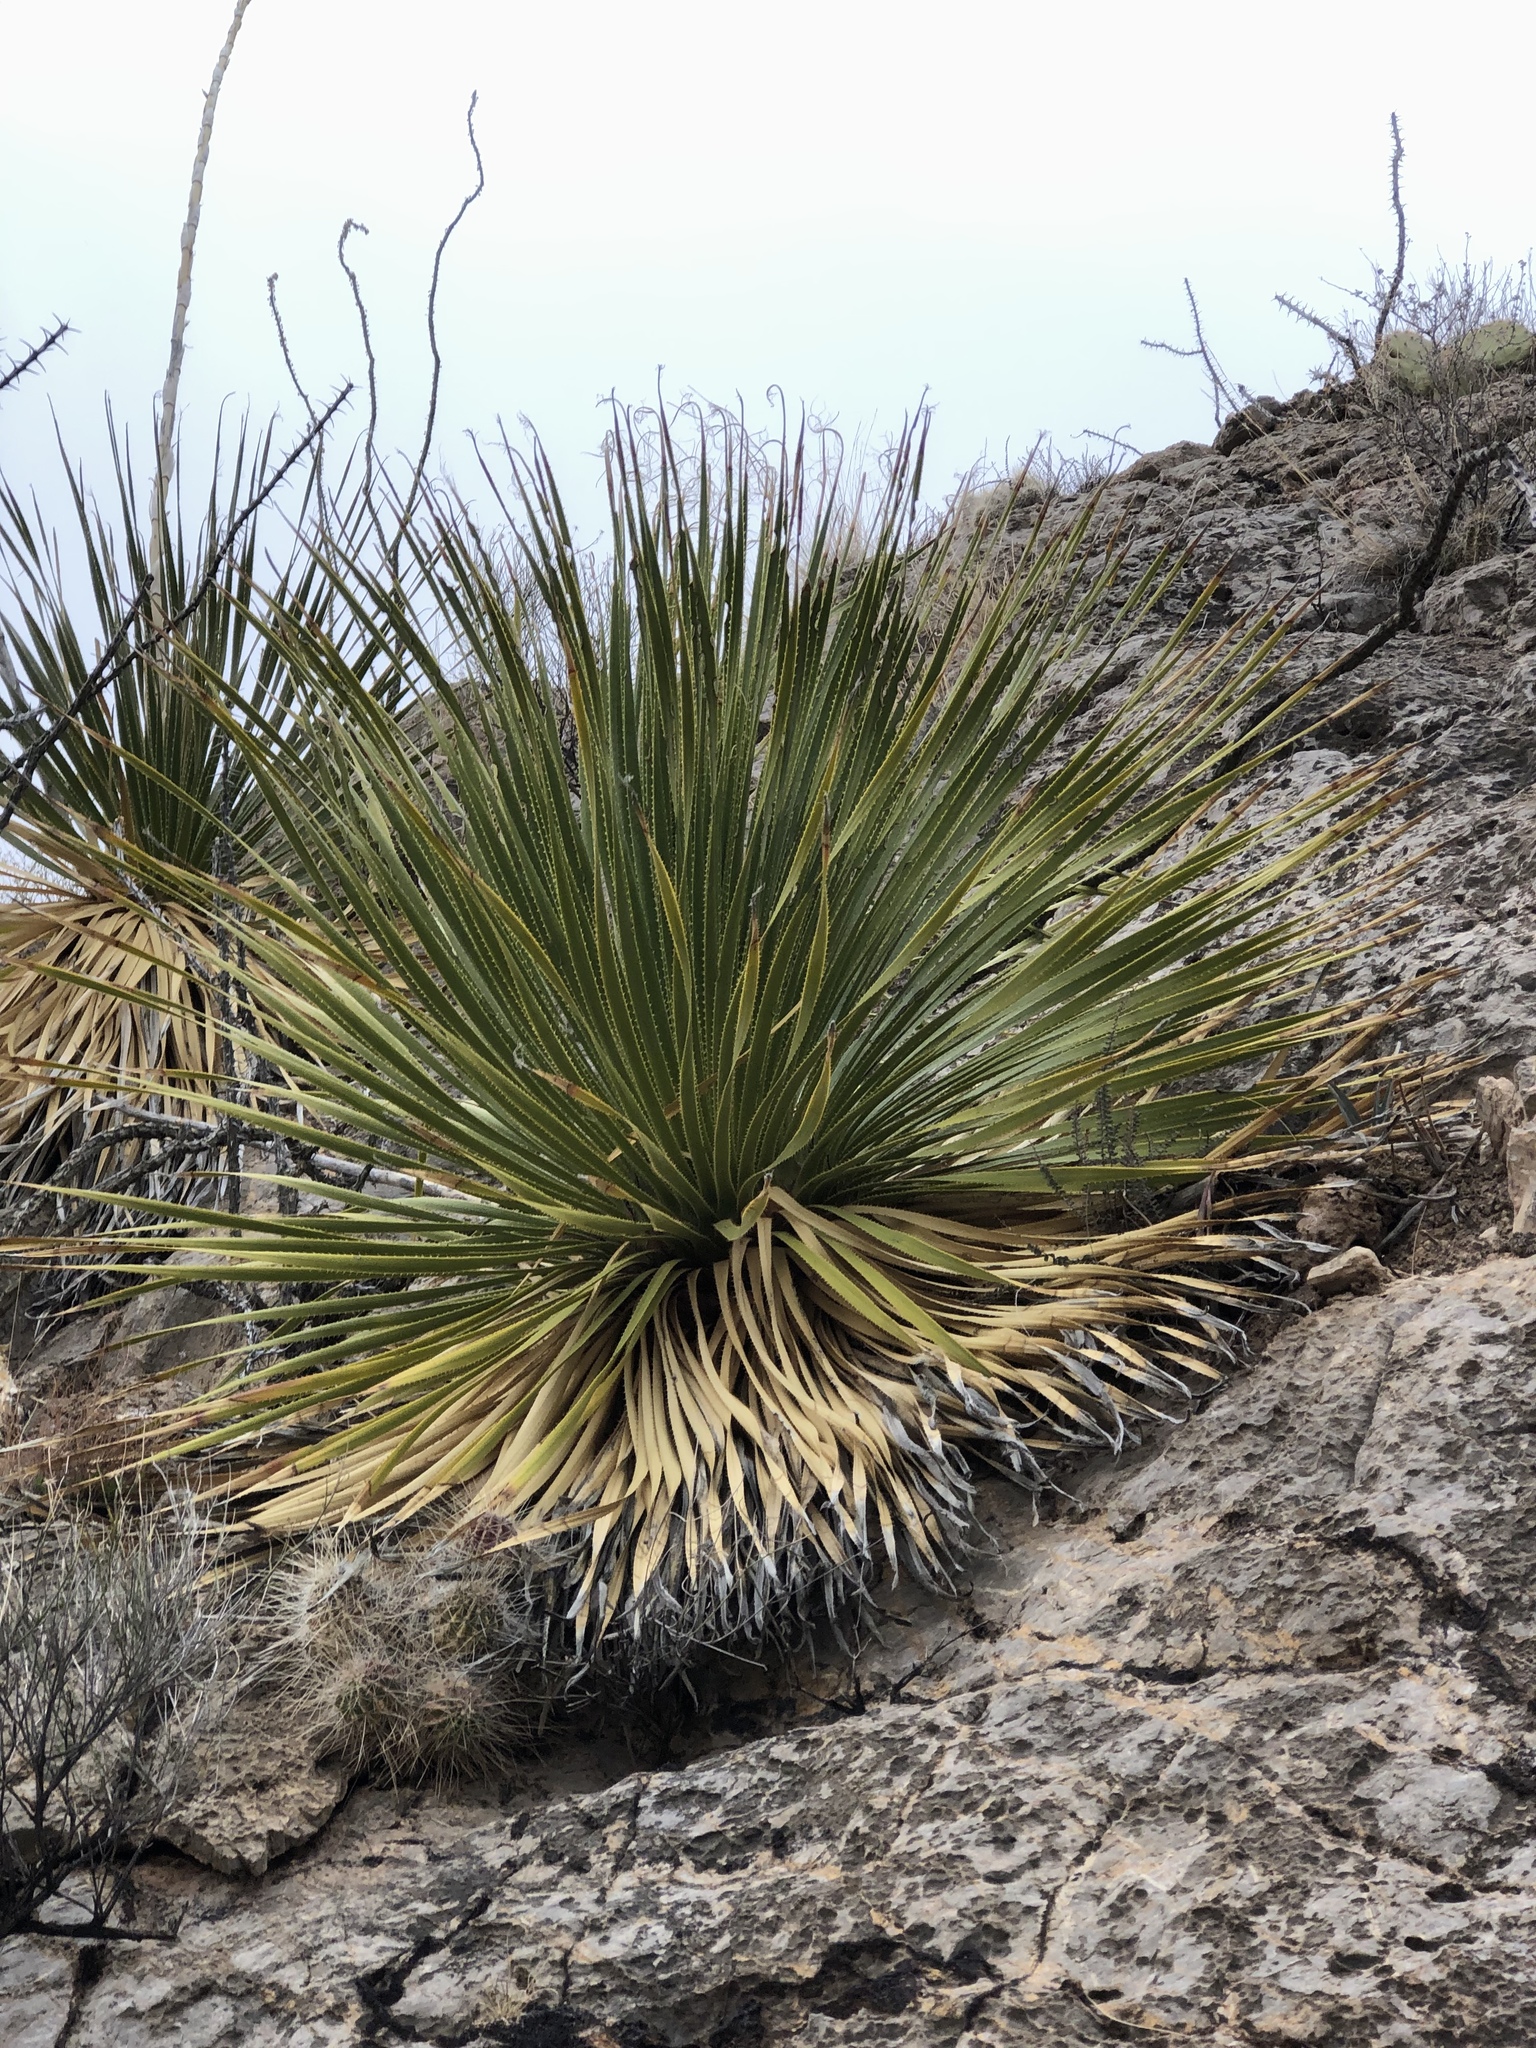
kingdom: Plantae
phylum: Tracheophyta
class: Liliopsida
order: Asparagales
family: Asparagaceae
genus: Dasylirion
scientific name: Dasylirion wheeleri
